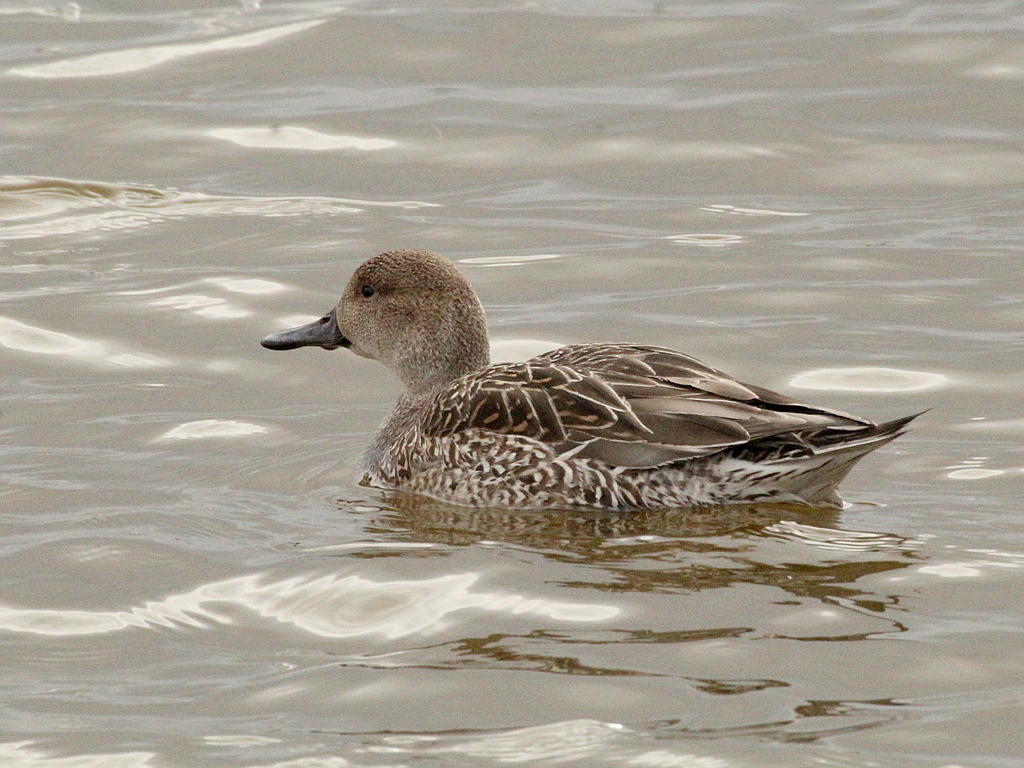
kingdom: Animalia
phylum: Chordata
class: Aves
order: Anseriformes
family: Anatidae
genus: Anas
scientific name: Anas acuta
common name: Northern pintail
